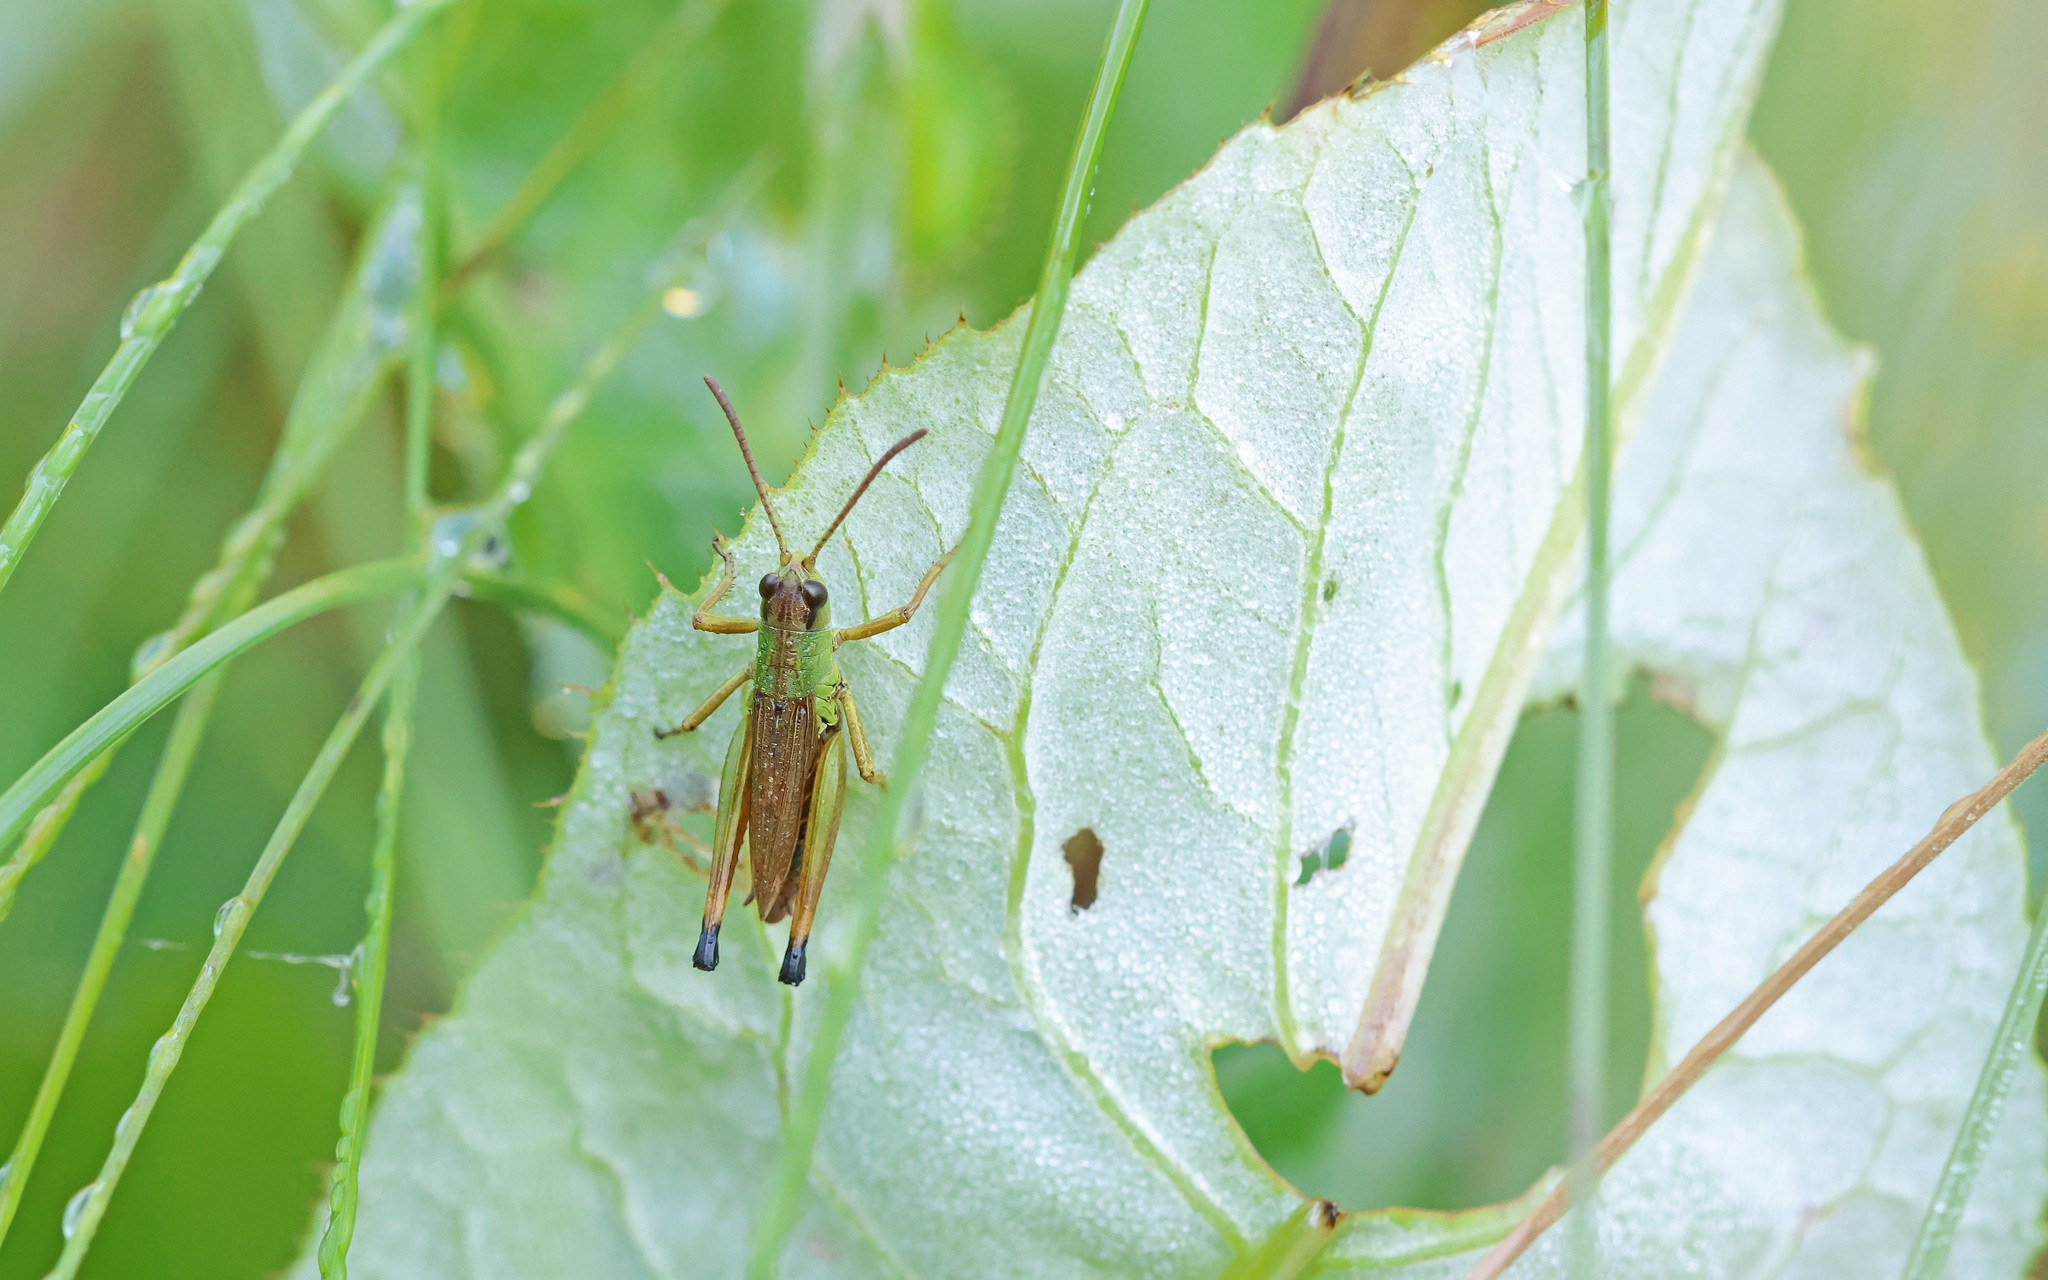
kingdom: Animalia
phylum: Arthropoda
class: Insecta
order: Orthoptera
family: Acrididae
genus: Pseudochorthippus
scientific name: Pseudochorthippus parallelus
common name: Meadow grasshopper
